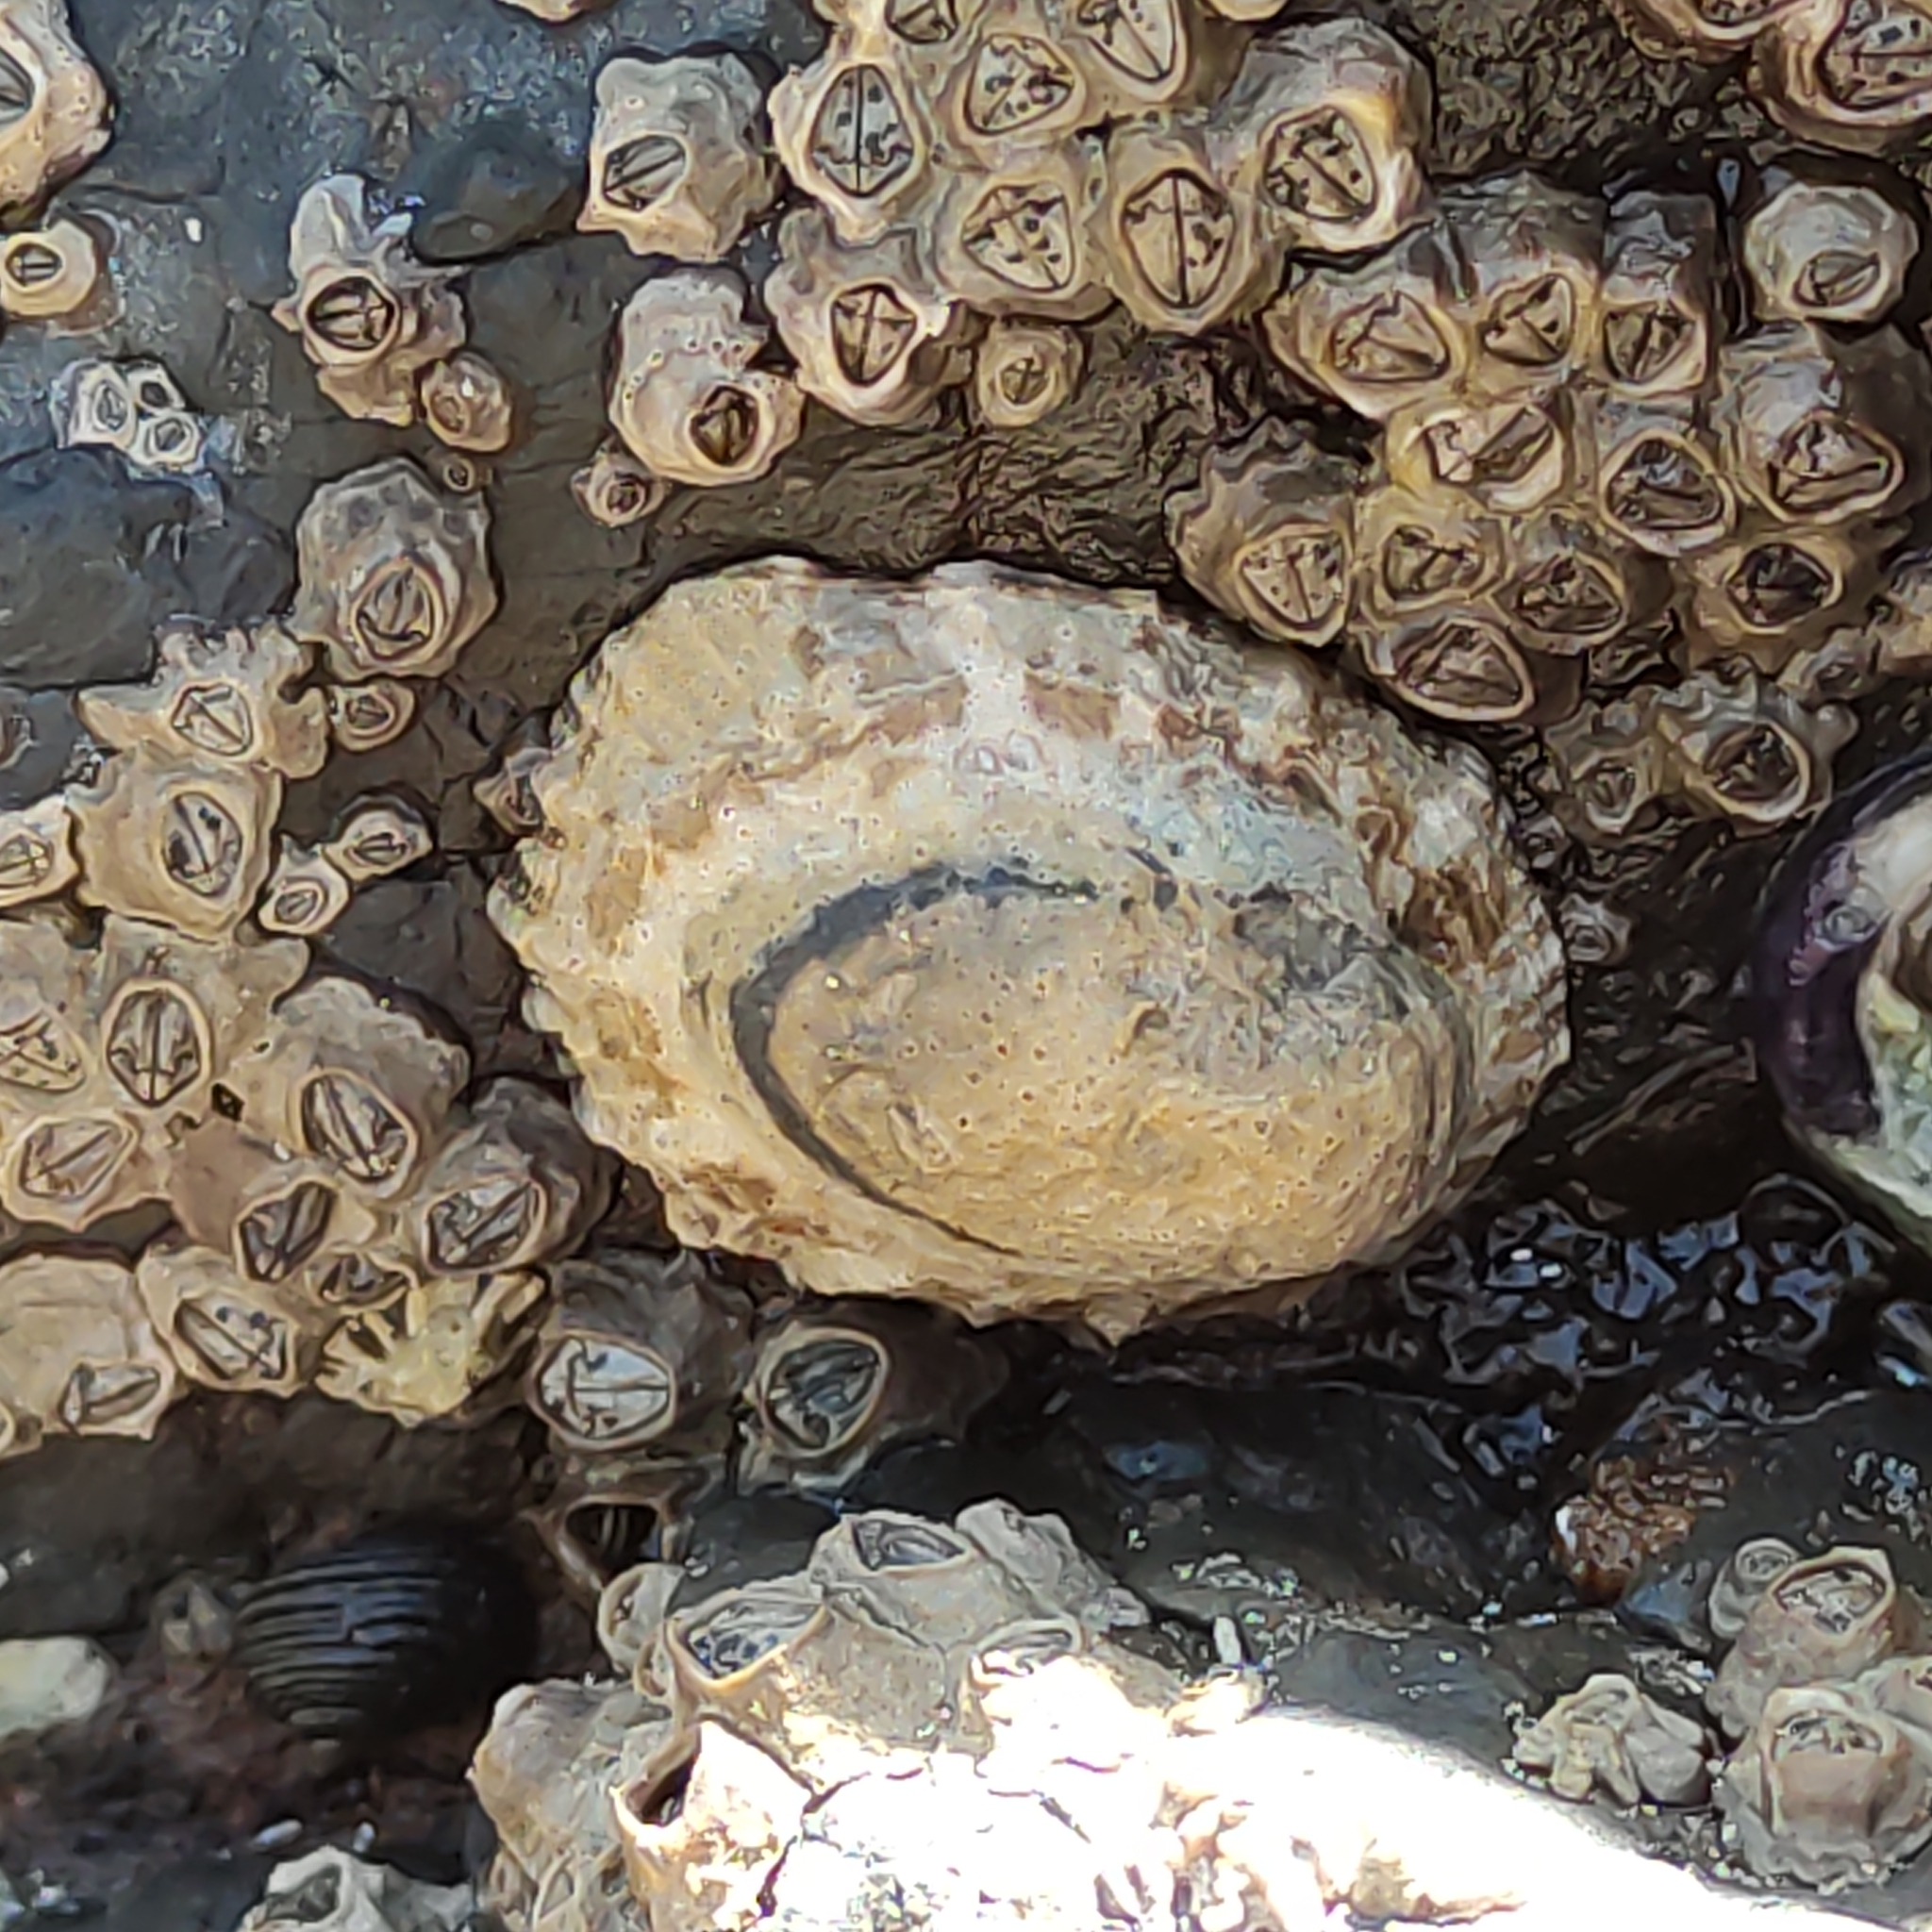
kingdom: Animalia
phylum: Mollusca
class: Gastropoda
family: Nacellidae
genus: Cellana
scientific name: Cellana ornata
